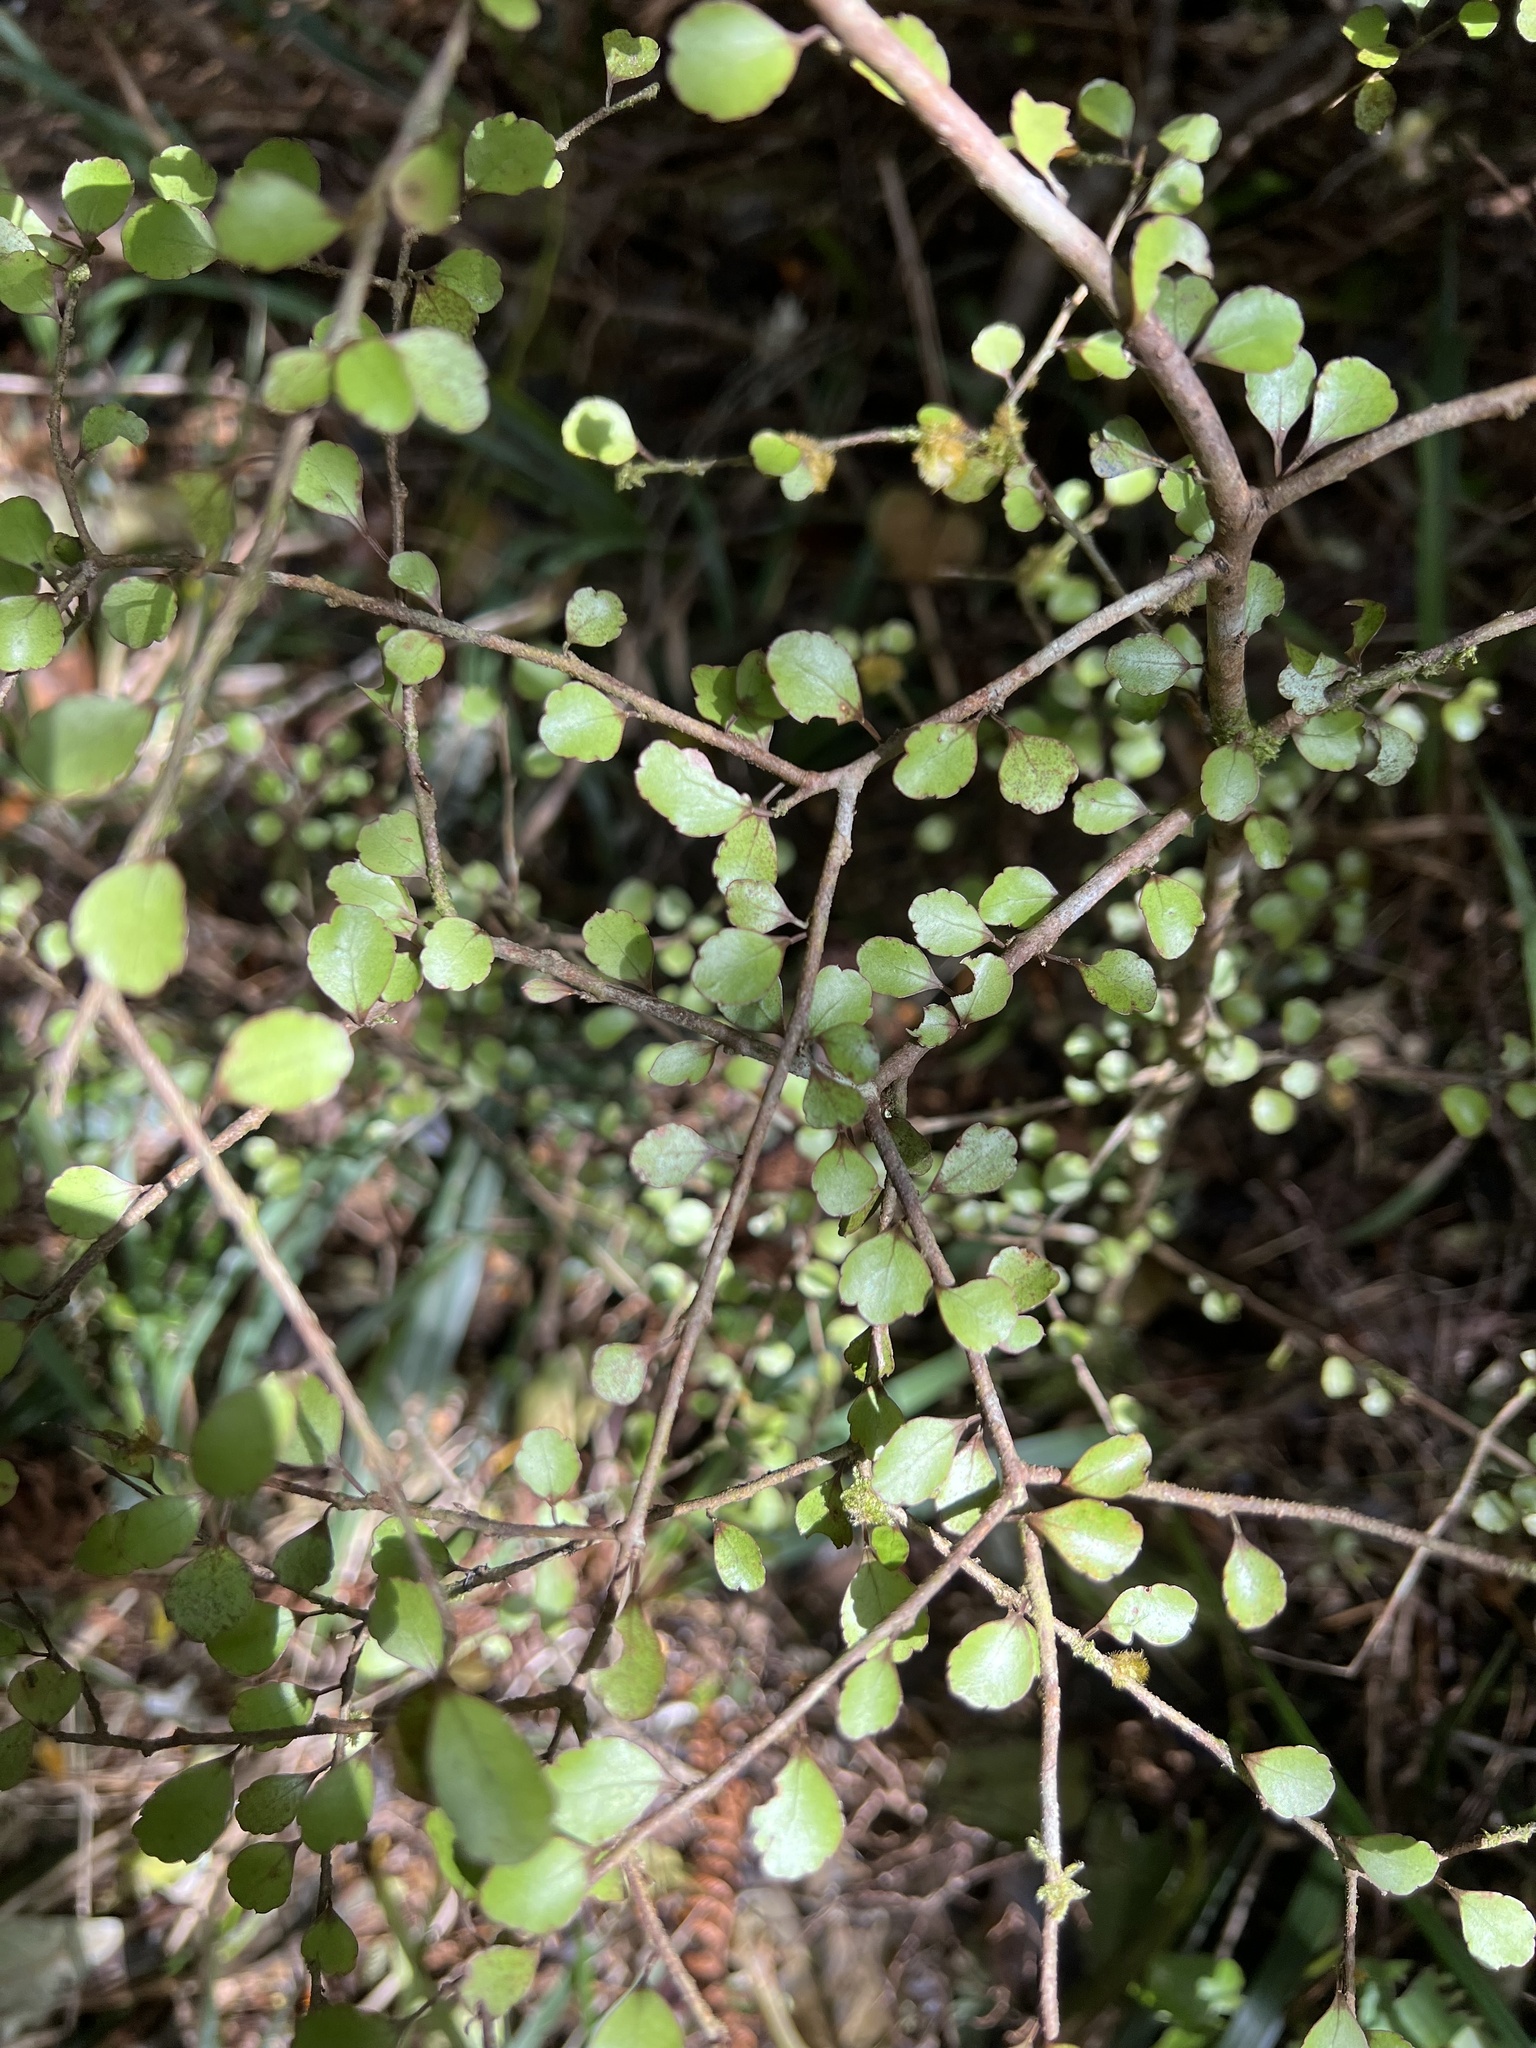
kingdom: Plantae
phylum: Tracheophyta
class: Magnoliopsida
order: Apiales
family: Araliaceae
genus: Raukaua
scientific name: Raukaua anomalus
